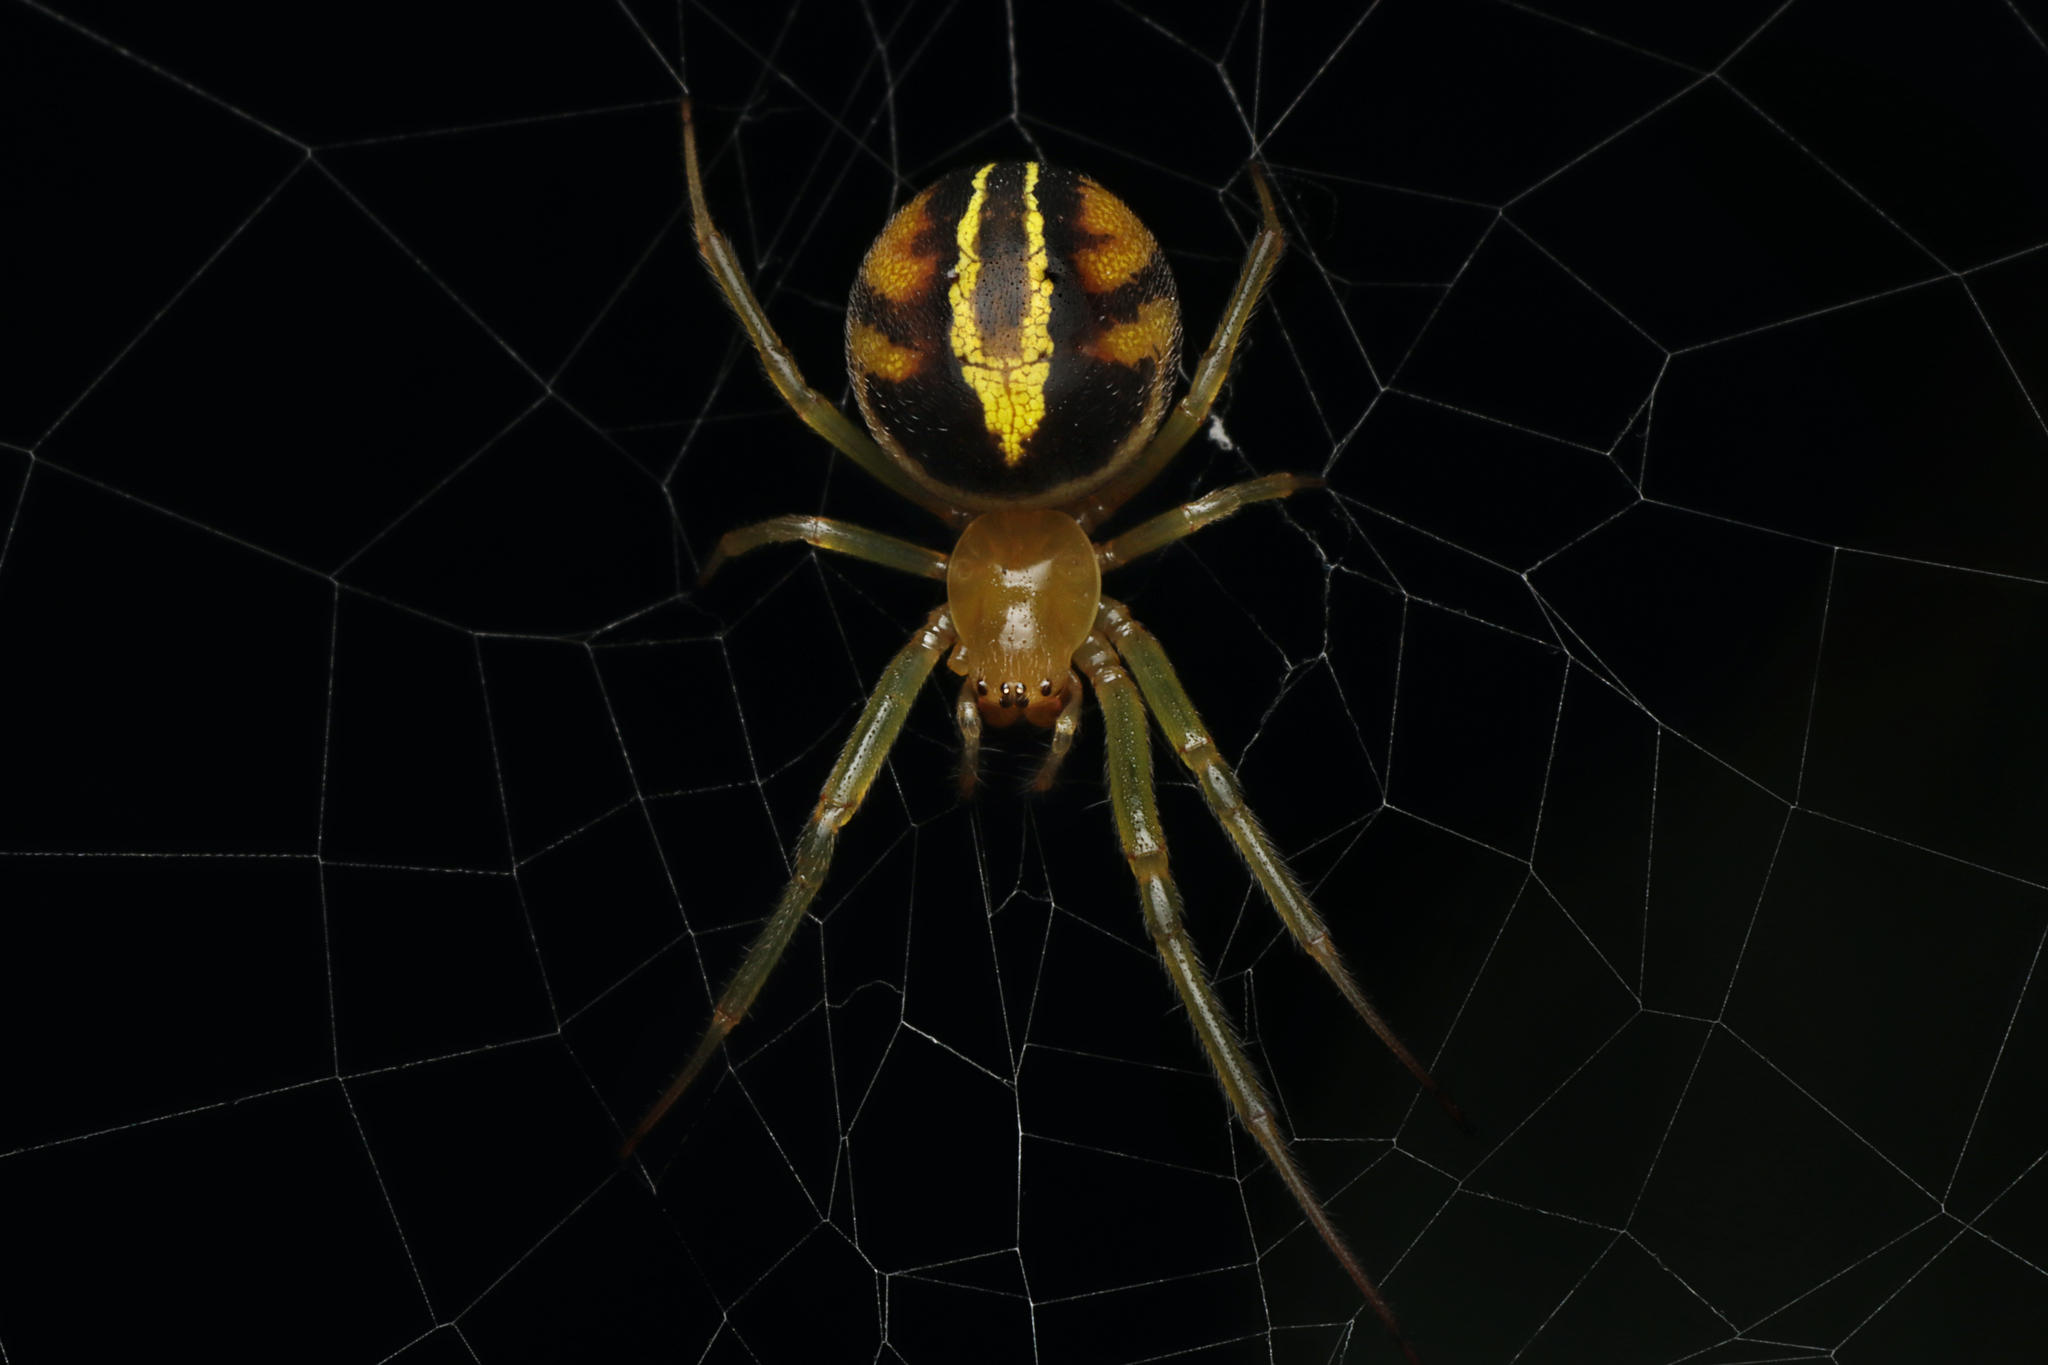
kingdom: Animalia
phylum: Arthropoda
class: Arachnida
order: Araneae
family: Araneidae
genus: Deliochus
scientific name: Deliochus humilis
